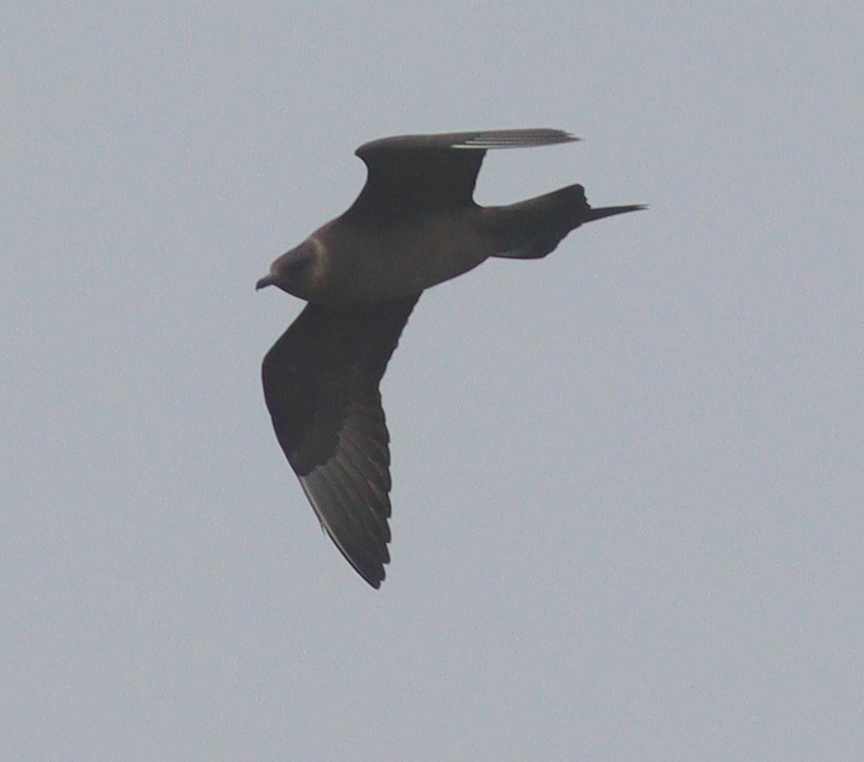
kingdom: Animalia
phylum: Chordata
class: Aves
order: Charadriiformes
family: Stercorariidae
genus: Stercorarius
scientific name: Stercorarius parasiticus
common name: Parasitic jaeger
